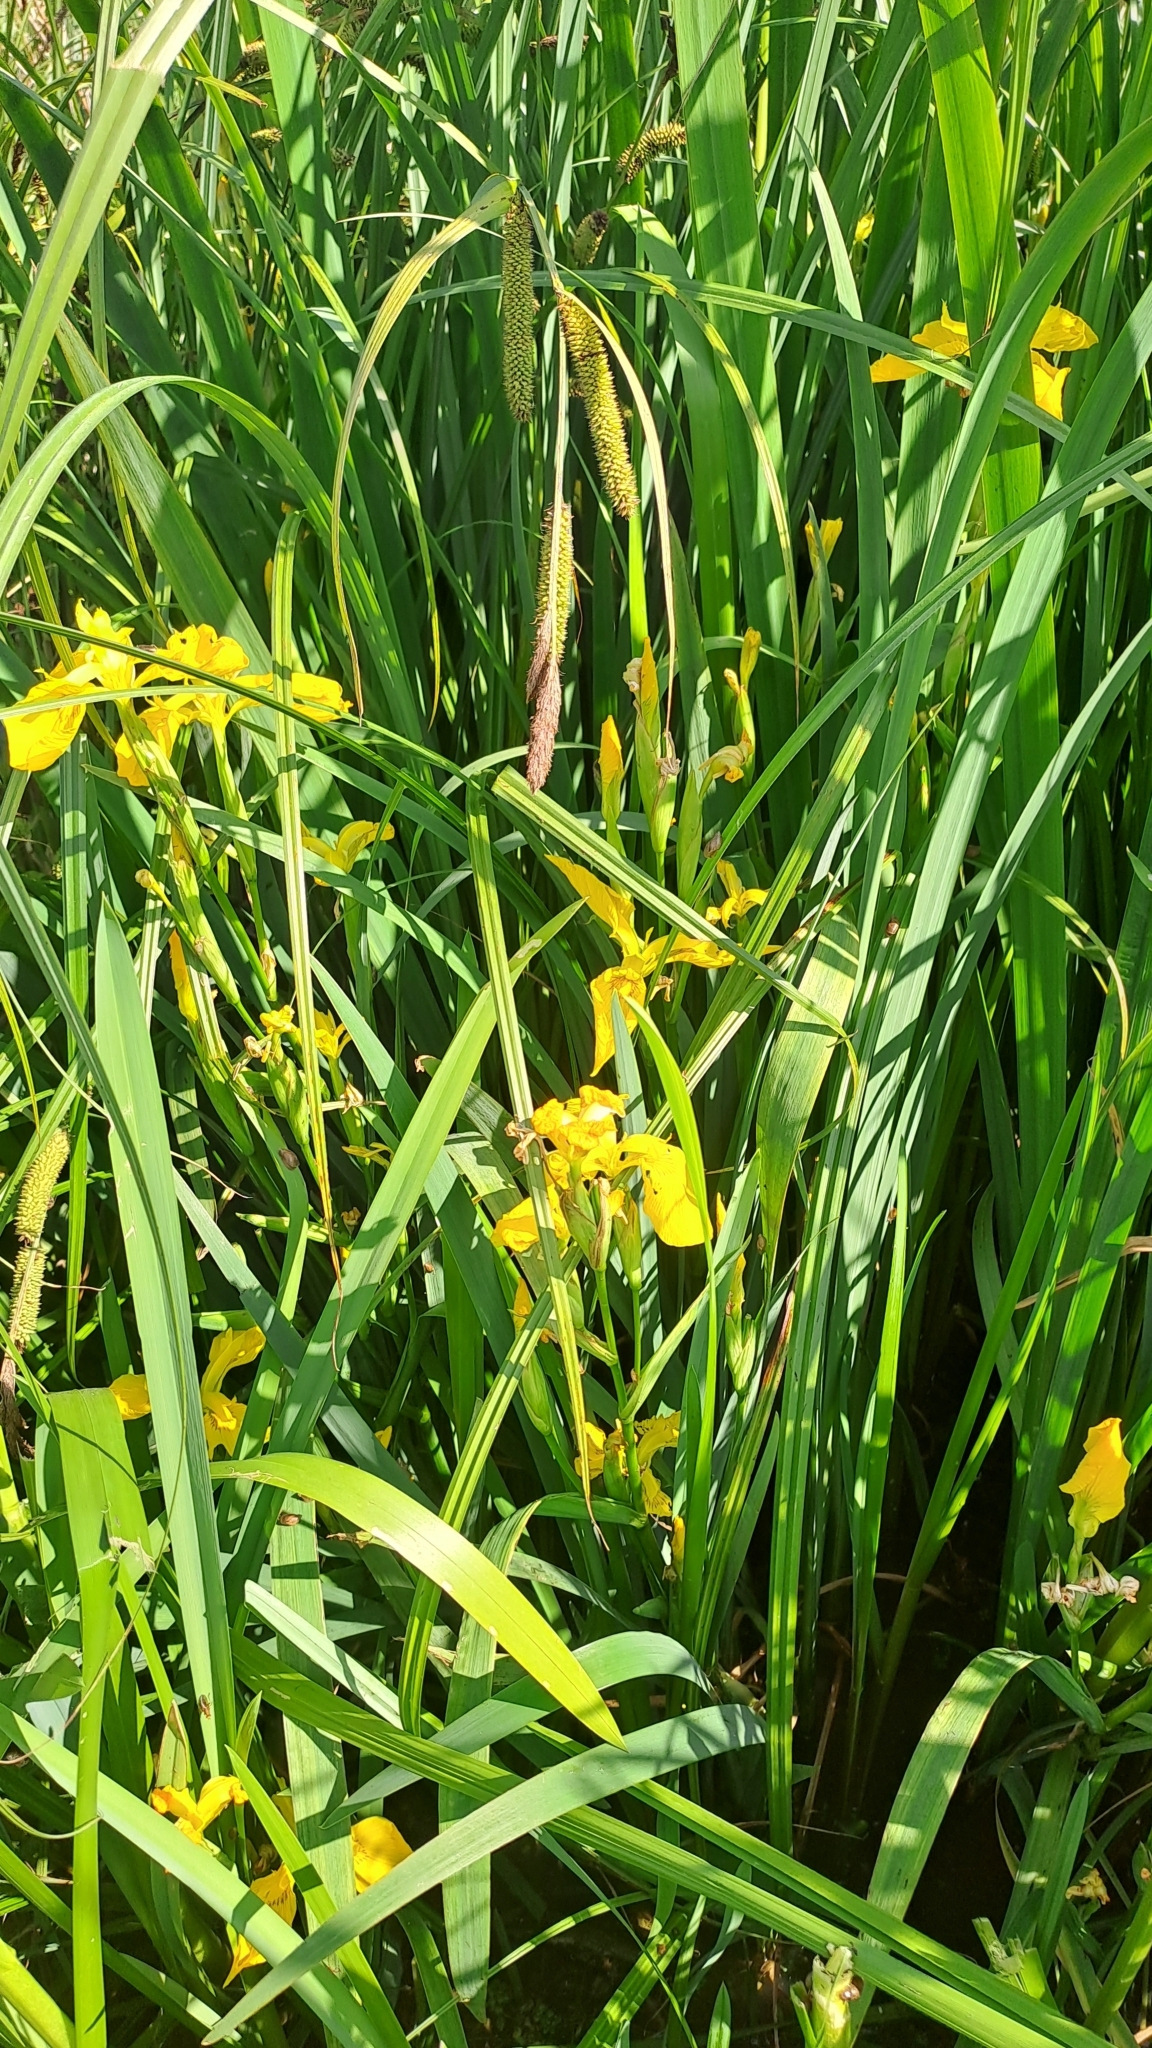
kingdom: Plantae
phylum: Tracheophyta
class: Liliopsida
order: Asparagales
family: Iridaceae
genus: Iris
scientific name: Iris pseudacorus
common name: Yellow flag
